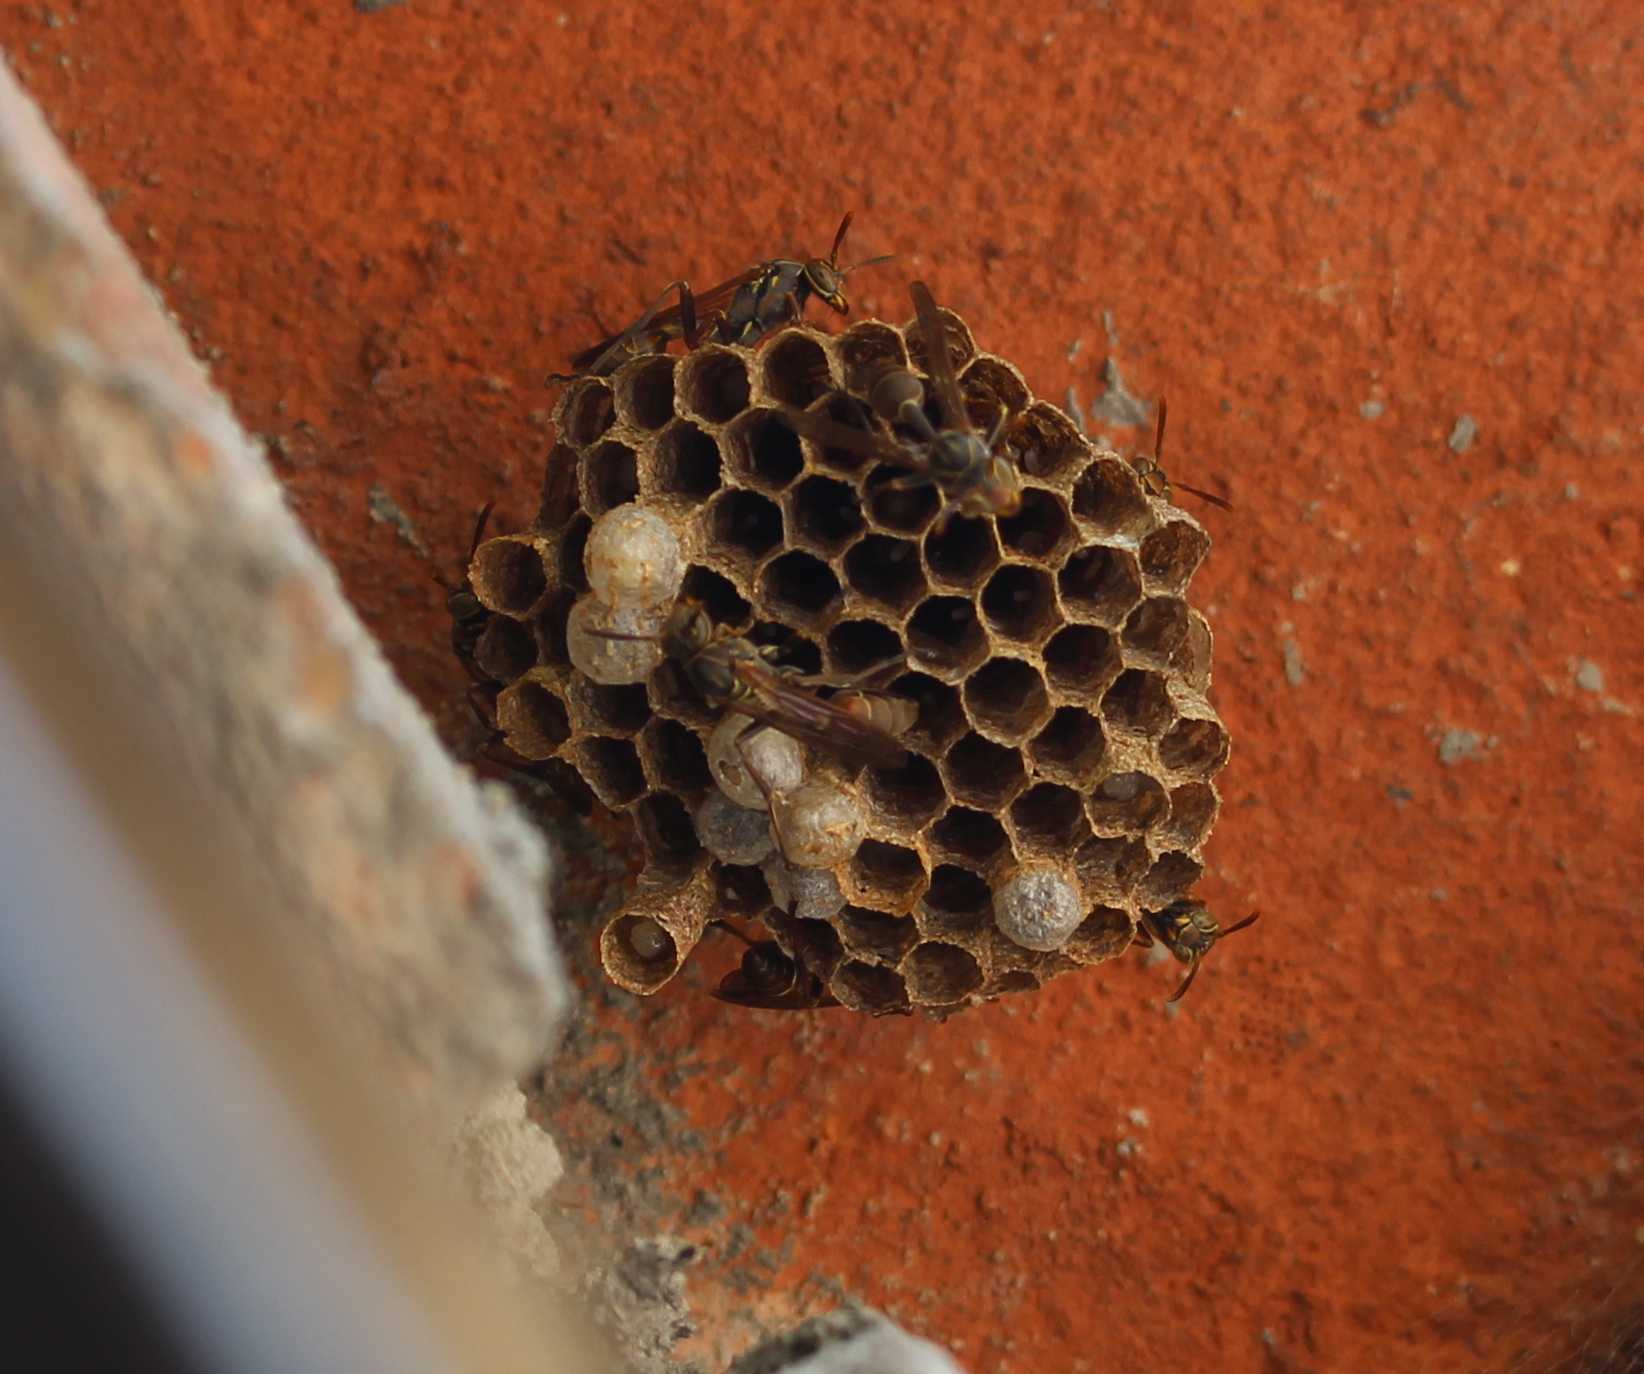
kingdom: Animalia
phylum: Arthropoda
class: Insecta
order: Hymenoptera
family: Vespidae
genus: Mischocyttarus
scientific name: Mischocyttarus mexicanus
